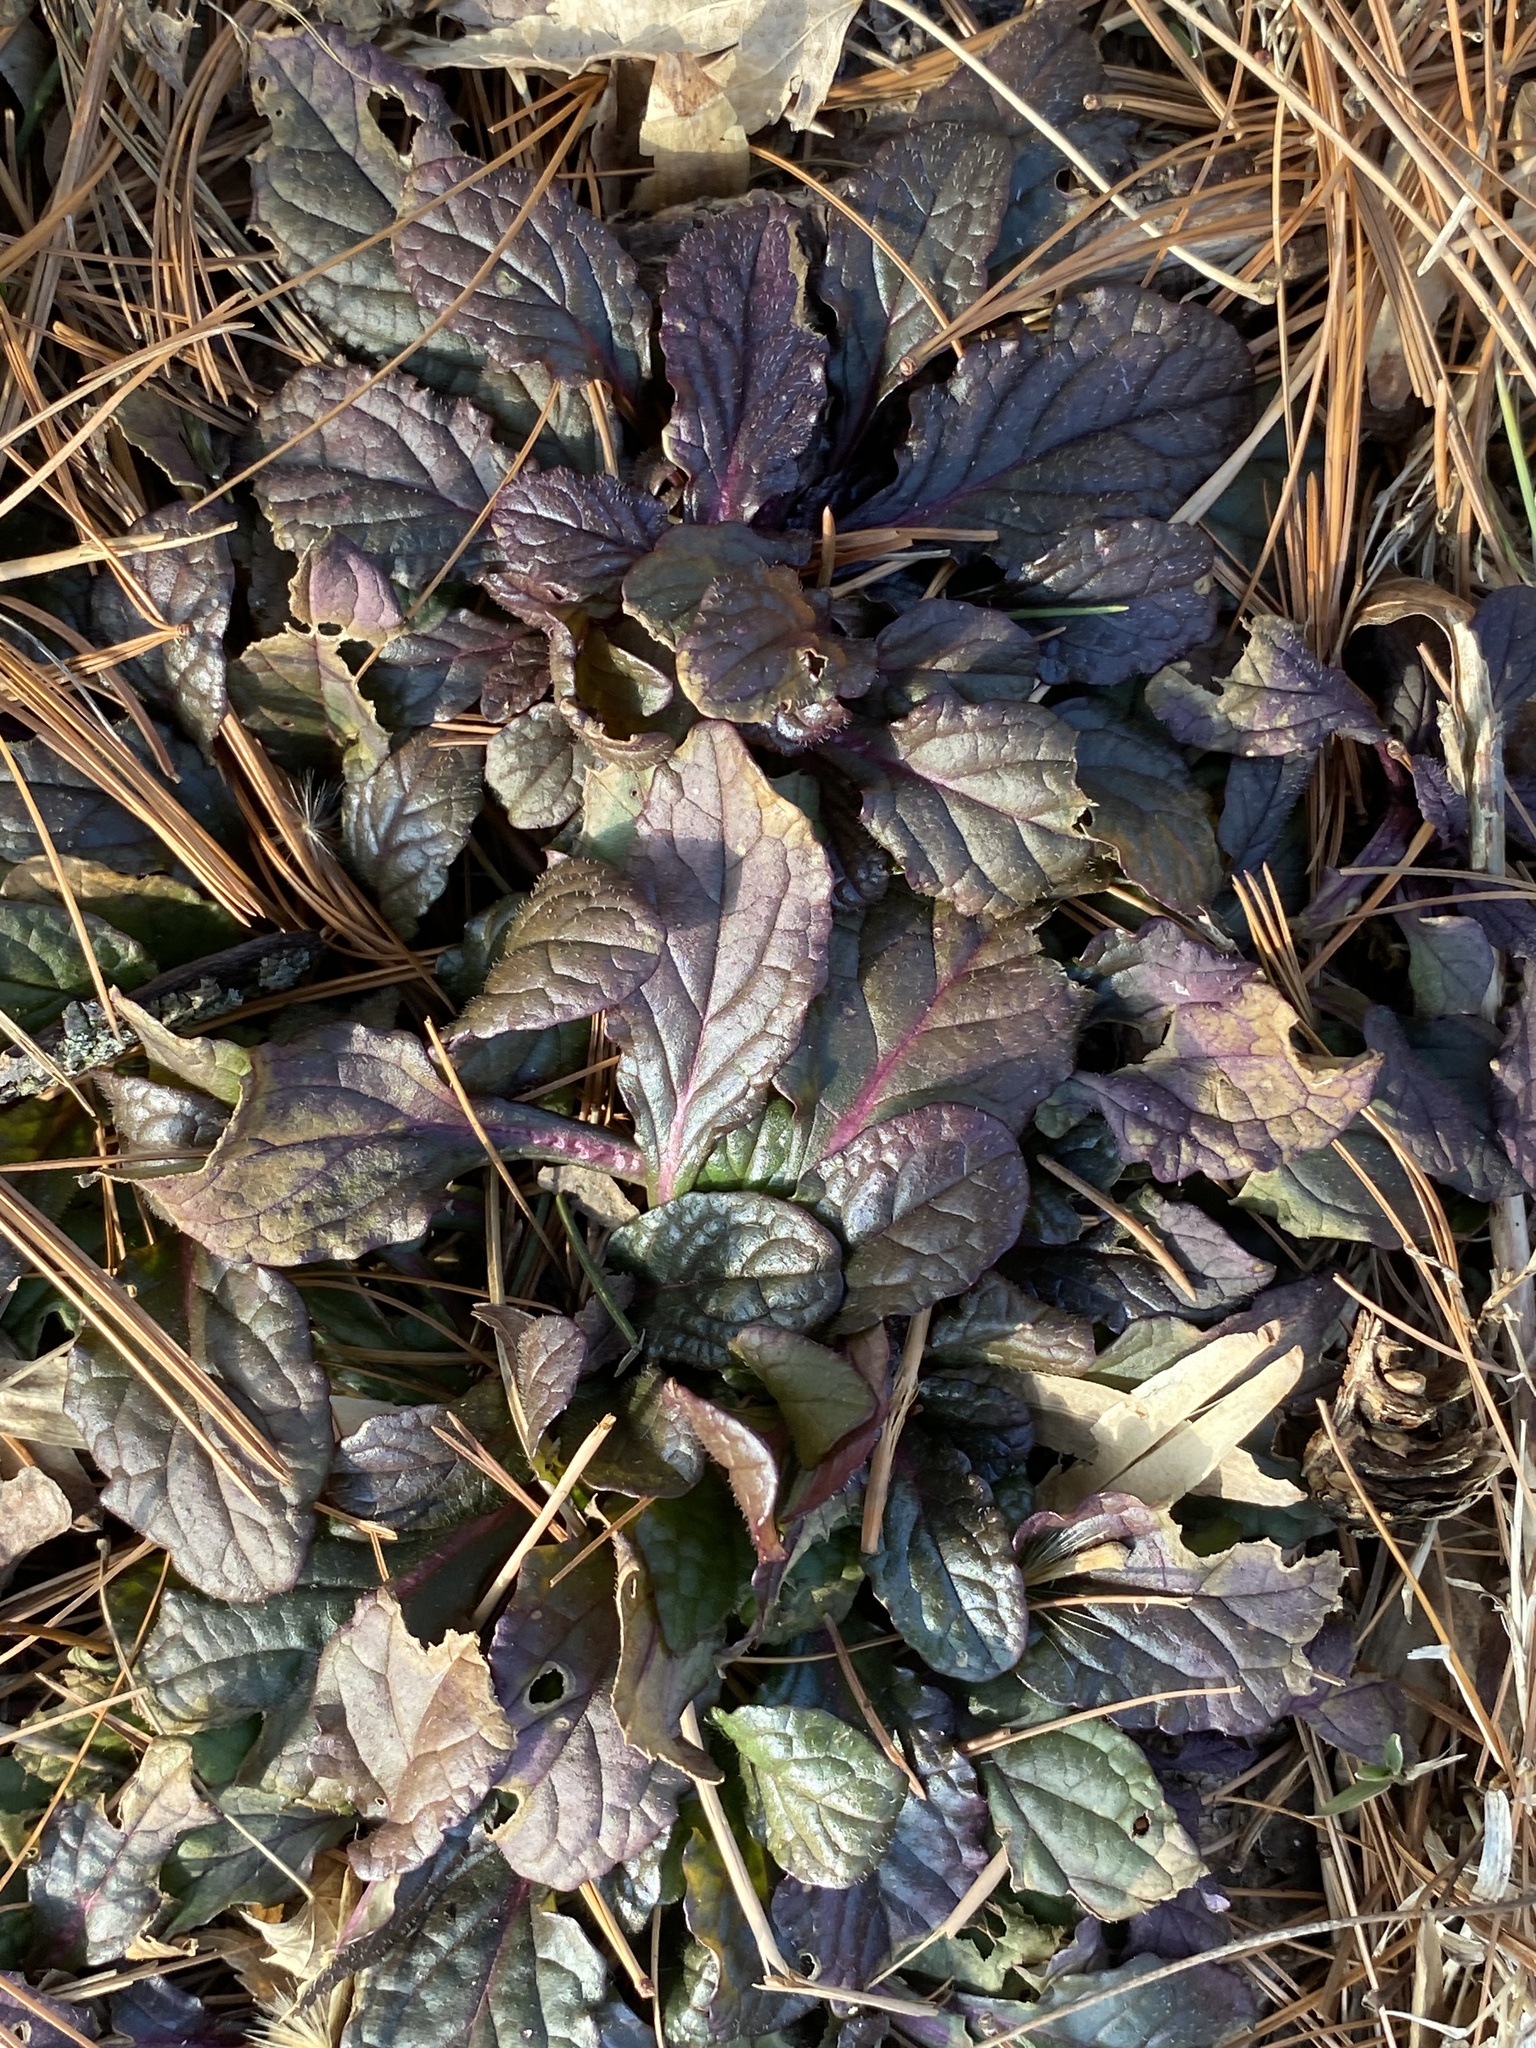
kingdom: Plantae
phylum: Tracheophyta
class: Magnoliopsida
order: Lamiales
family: Lamiaceae
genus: Ajuga
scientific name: Ajuga reptans
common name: Bugle
